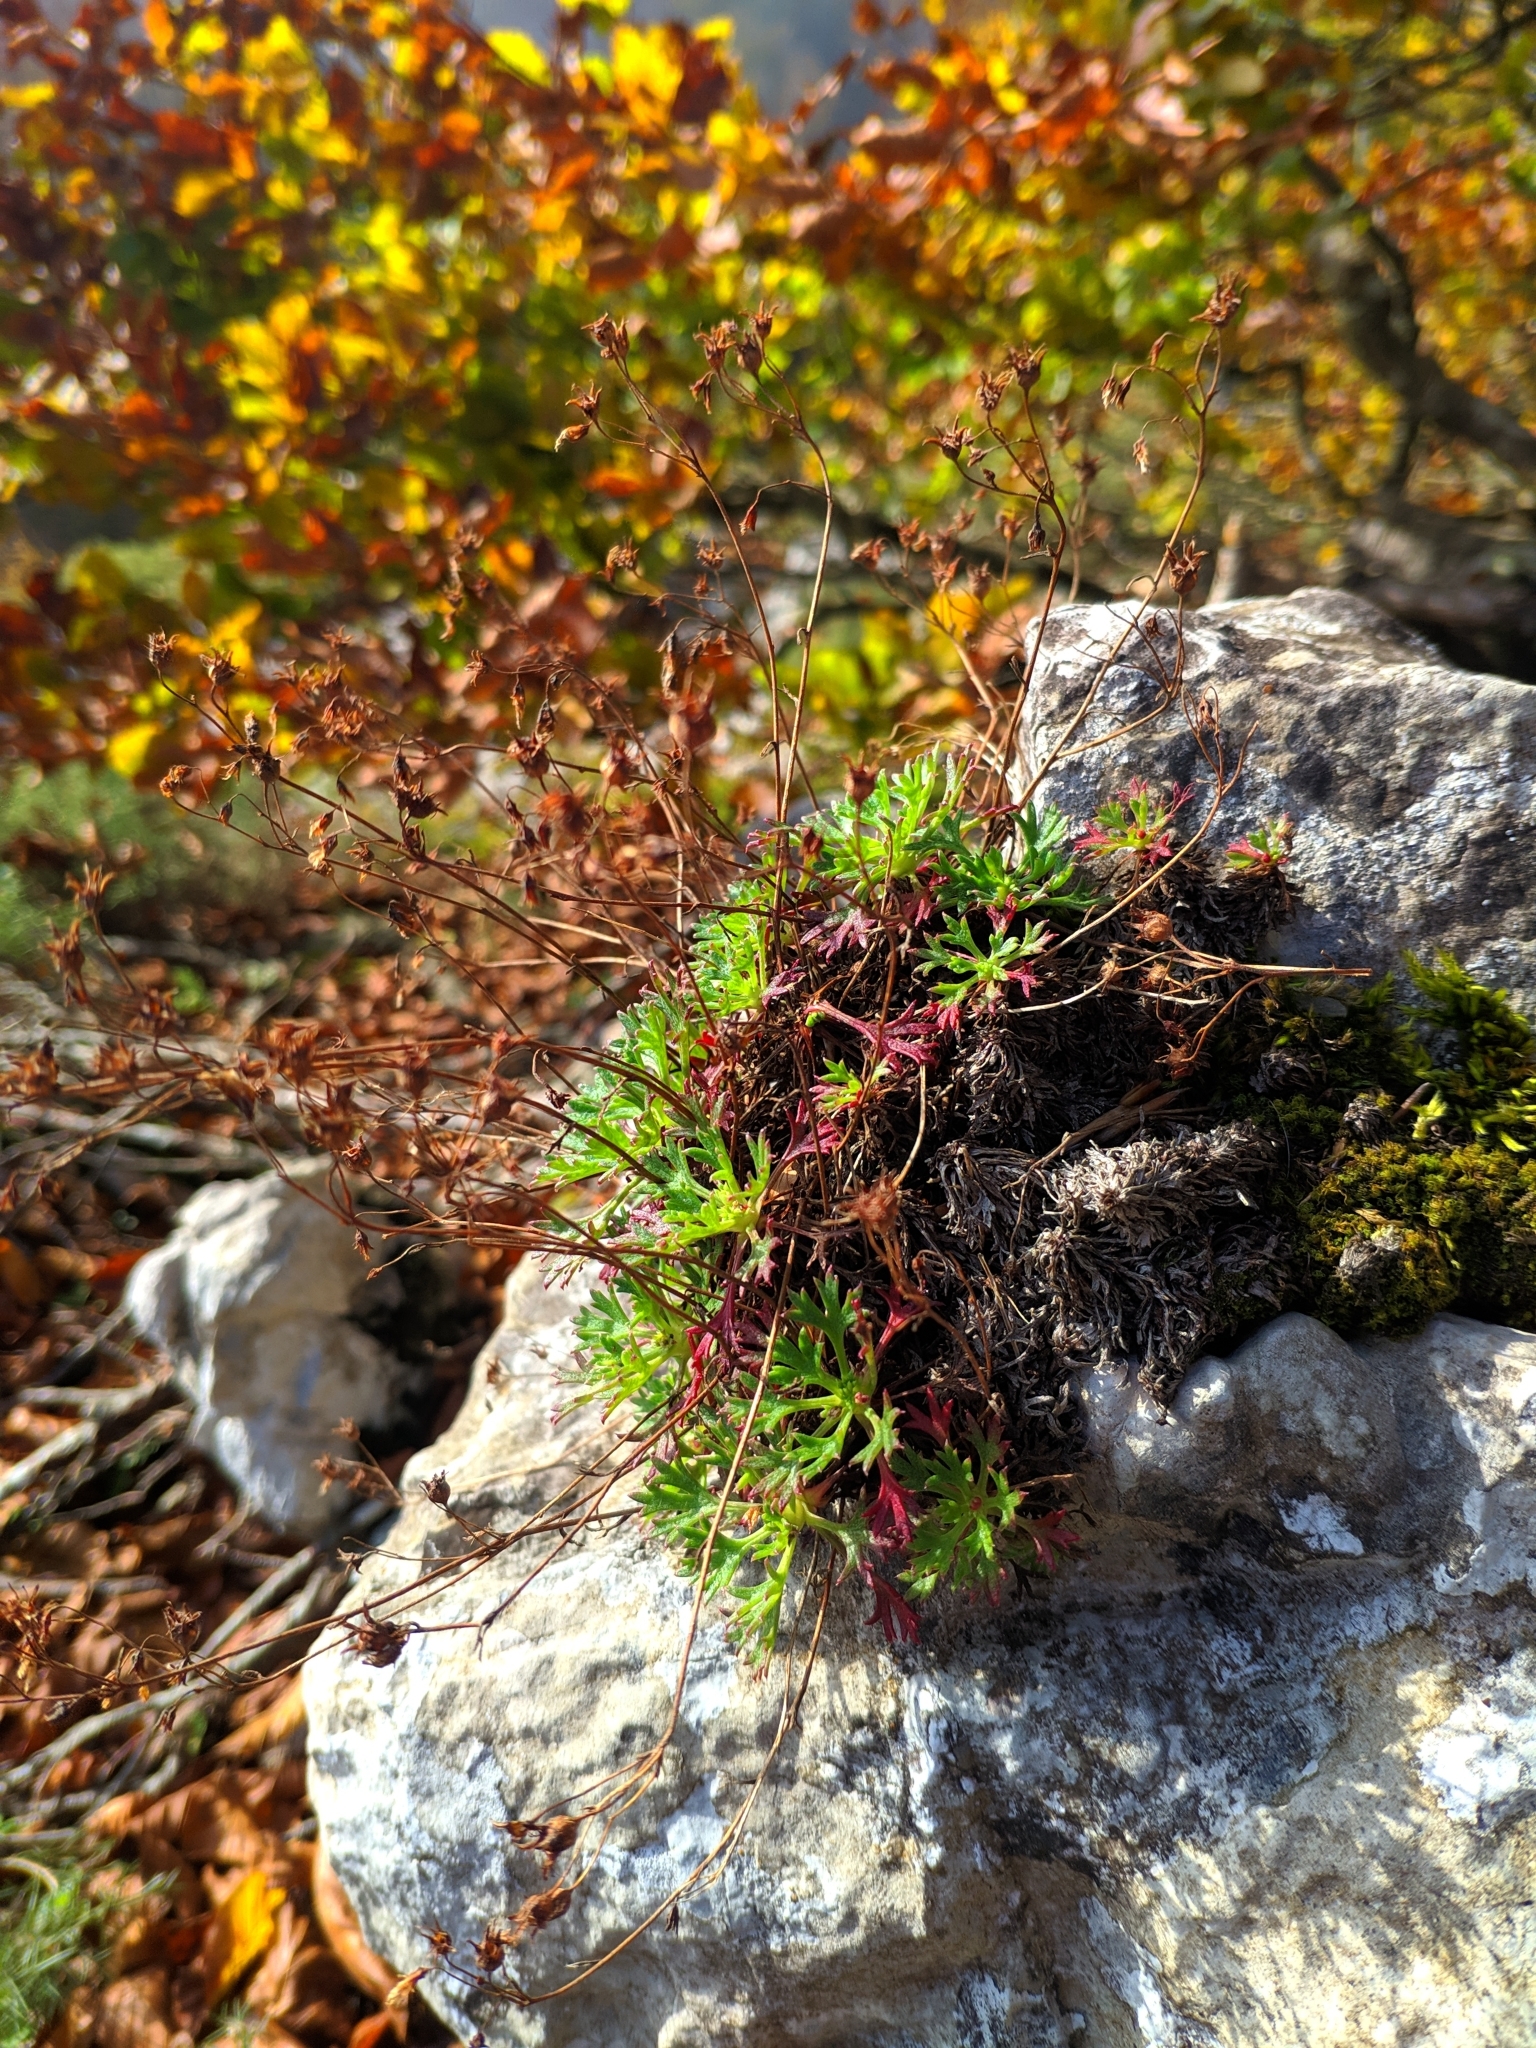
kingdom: Plantae
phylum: Tracheophyta
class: Magnoliopsida
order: Saxifragales
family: Saxifragaceae
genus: Saxifraga
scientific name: Saxifraga trifurcata
